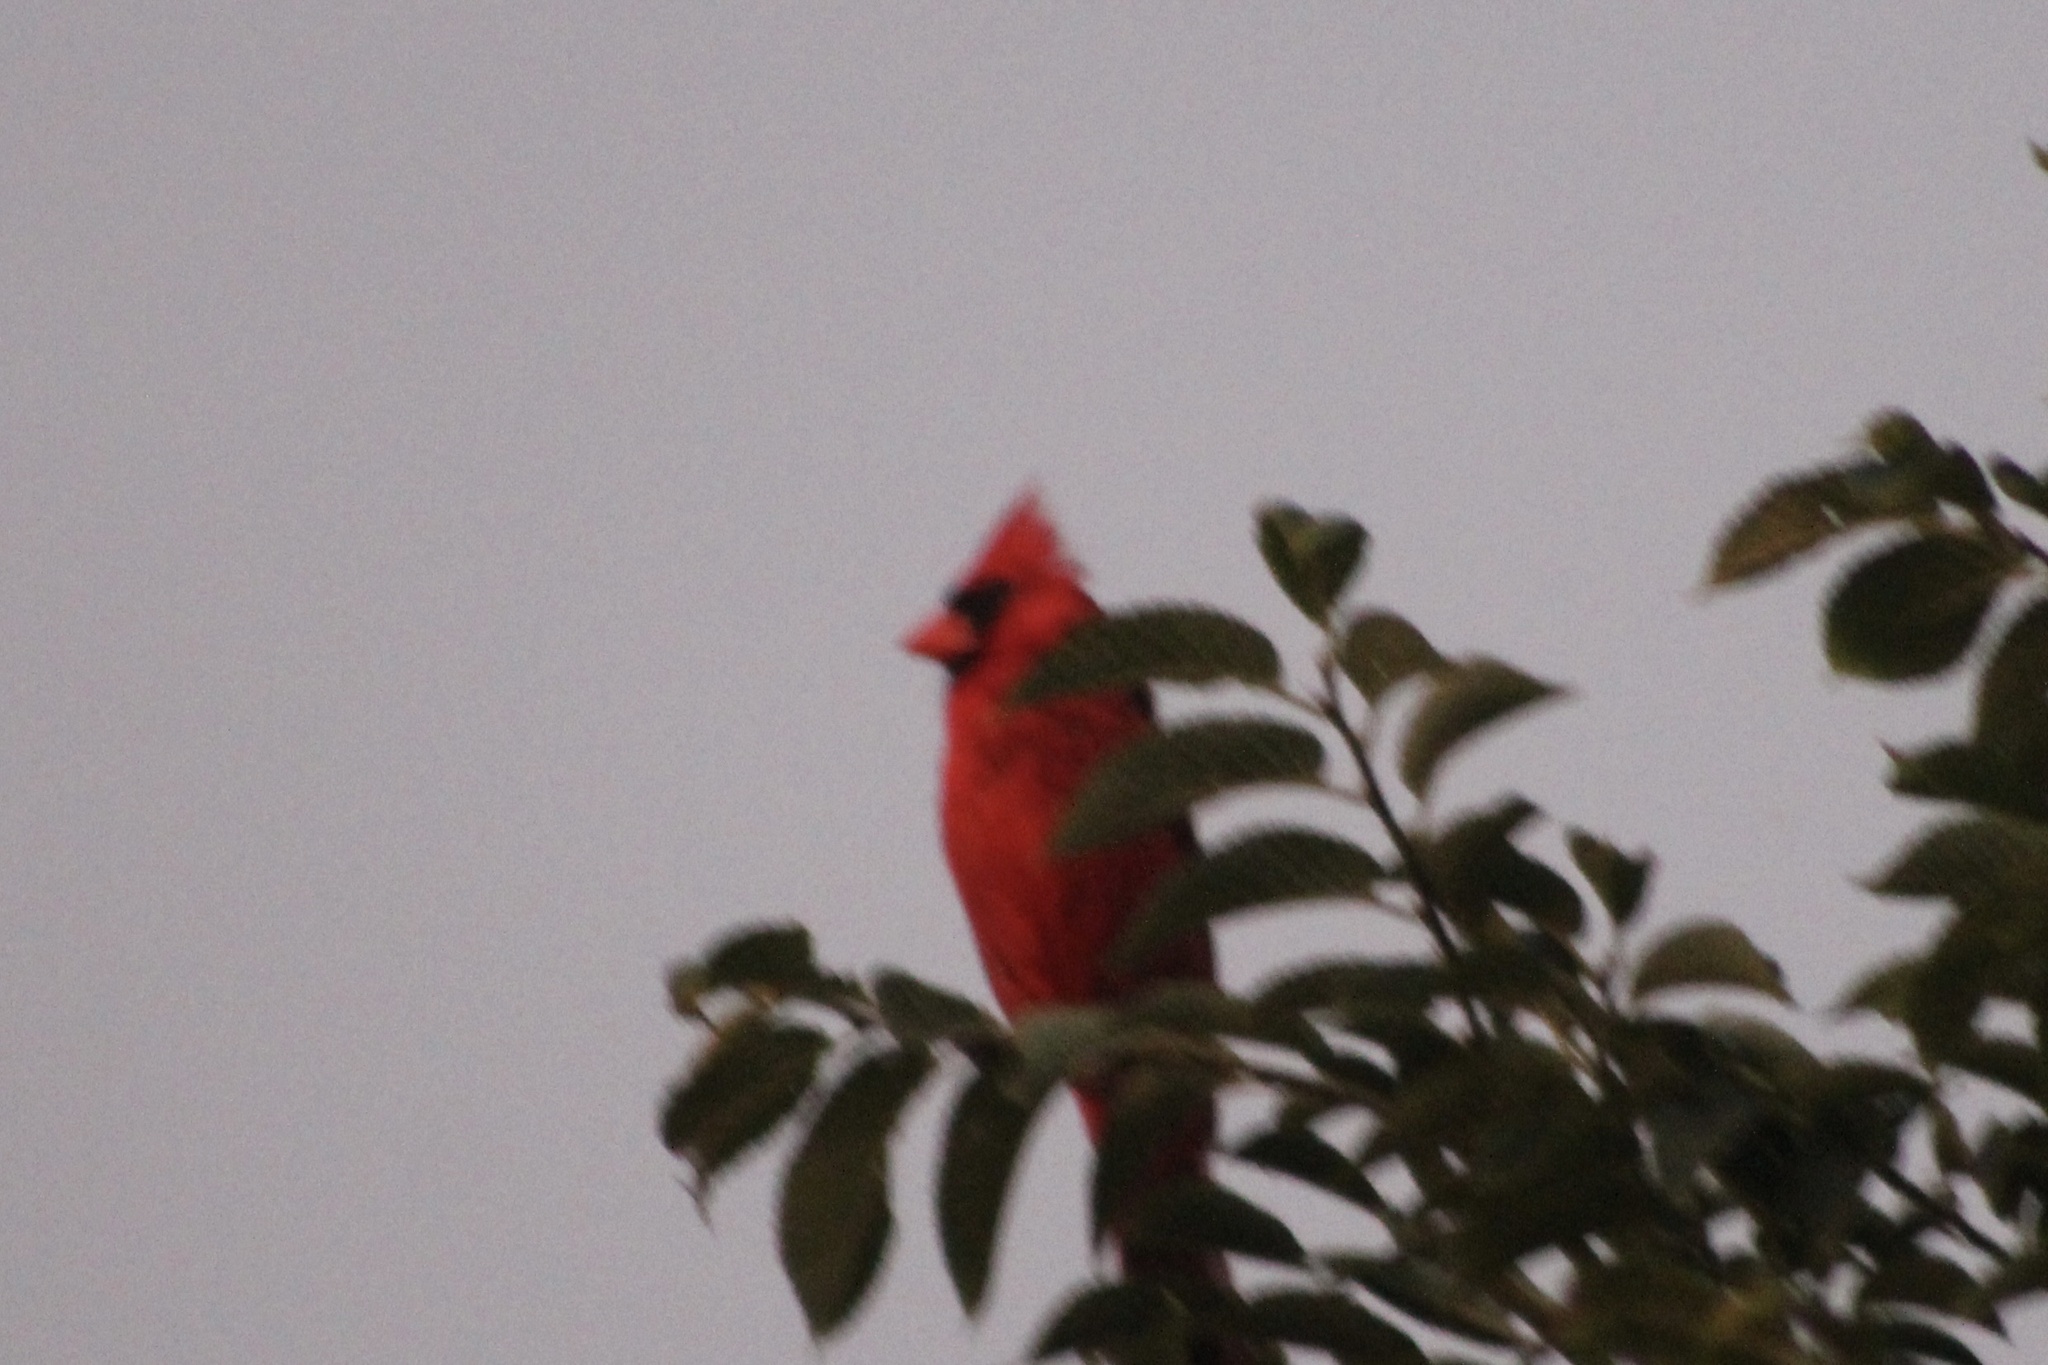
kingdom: Animalia
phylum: Chordata
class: Aves
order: Passeriformes
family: Cardinalidae
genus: Cardinalis
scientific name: Cardinalis cardinalis
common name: Northern cardinal
